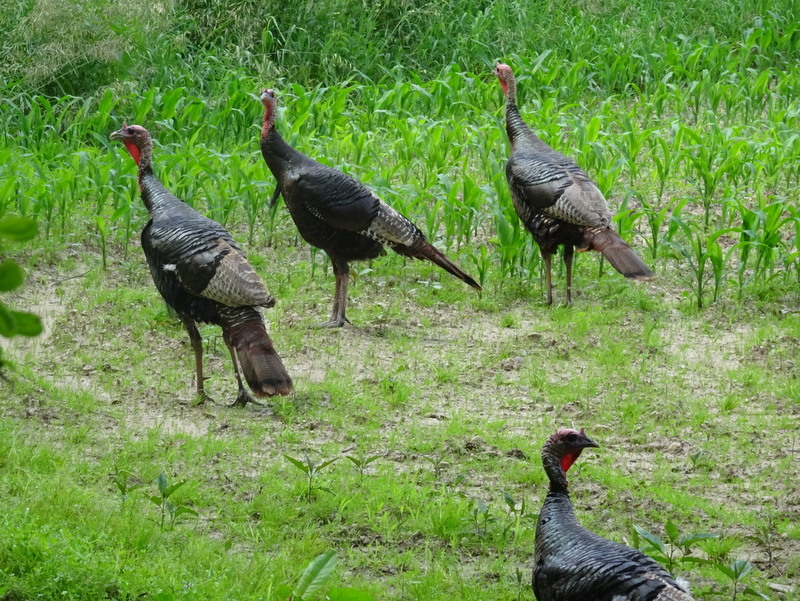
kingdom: Animalia
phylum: Chordata
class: Aves
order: Galliformes
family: Phasianidae
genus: Meleagris
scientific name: Meleagris gallopavo
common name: Wild turkey
